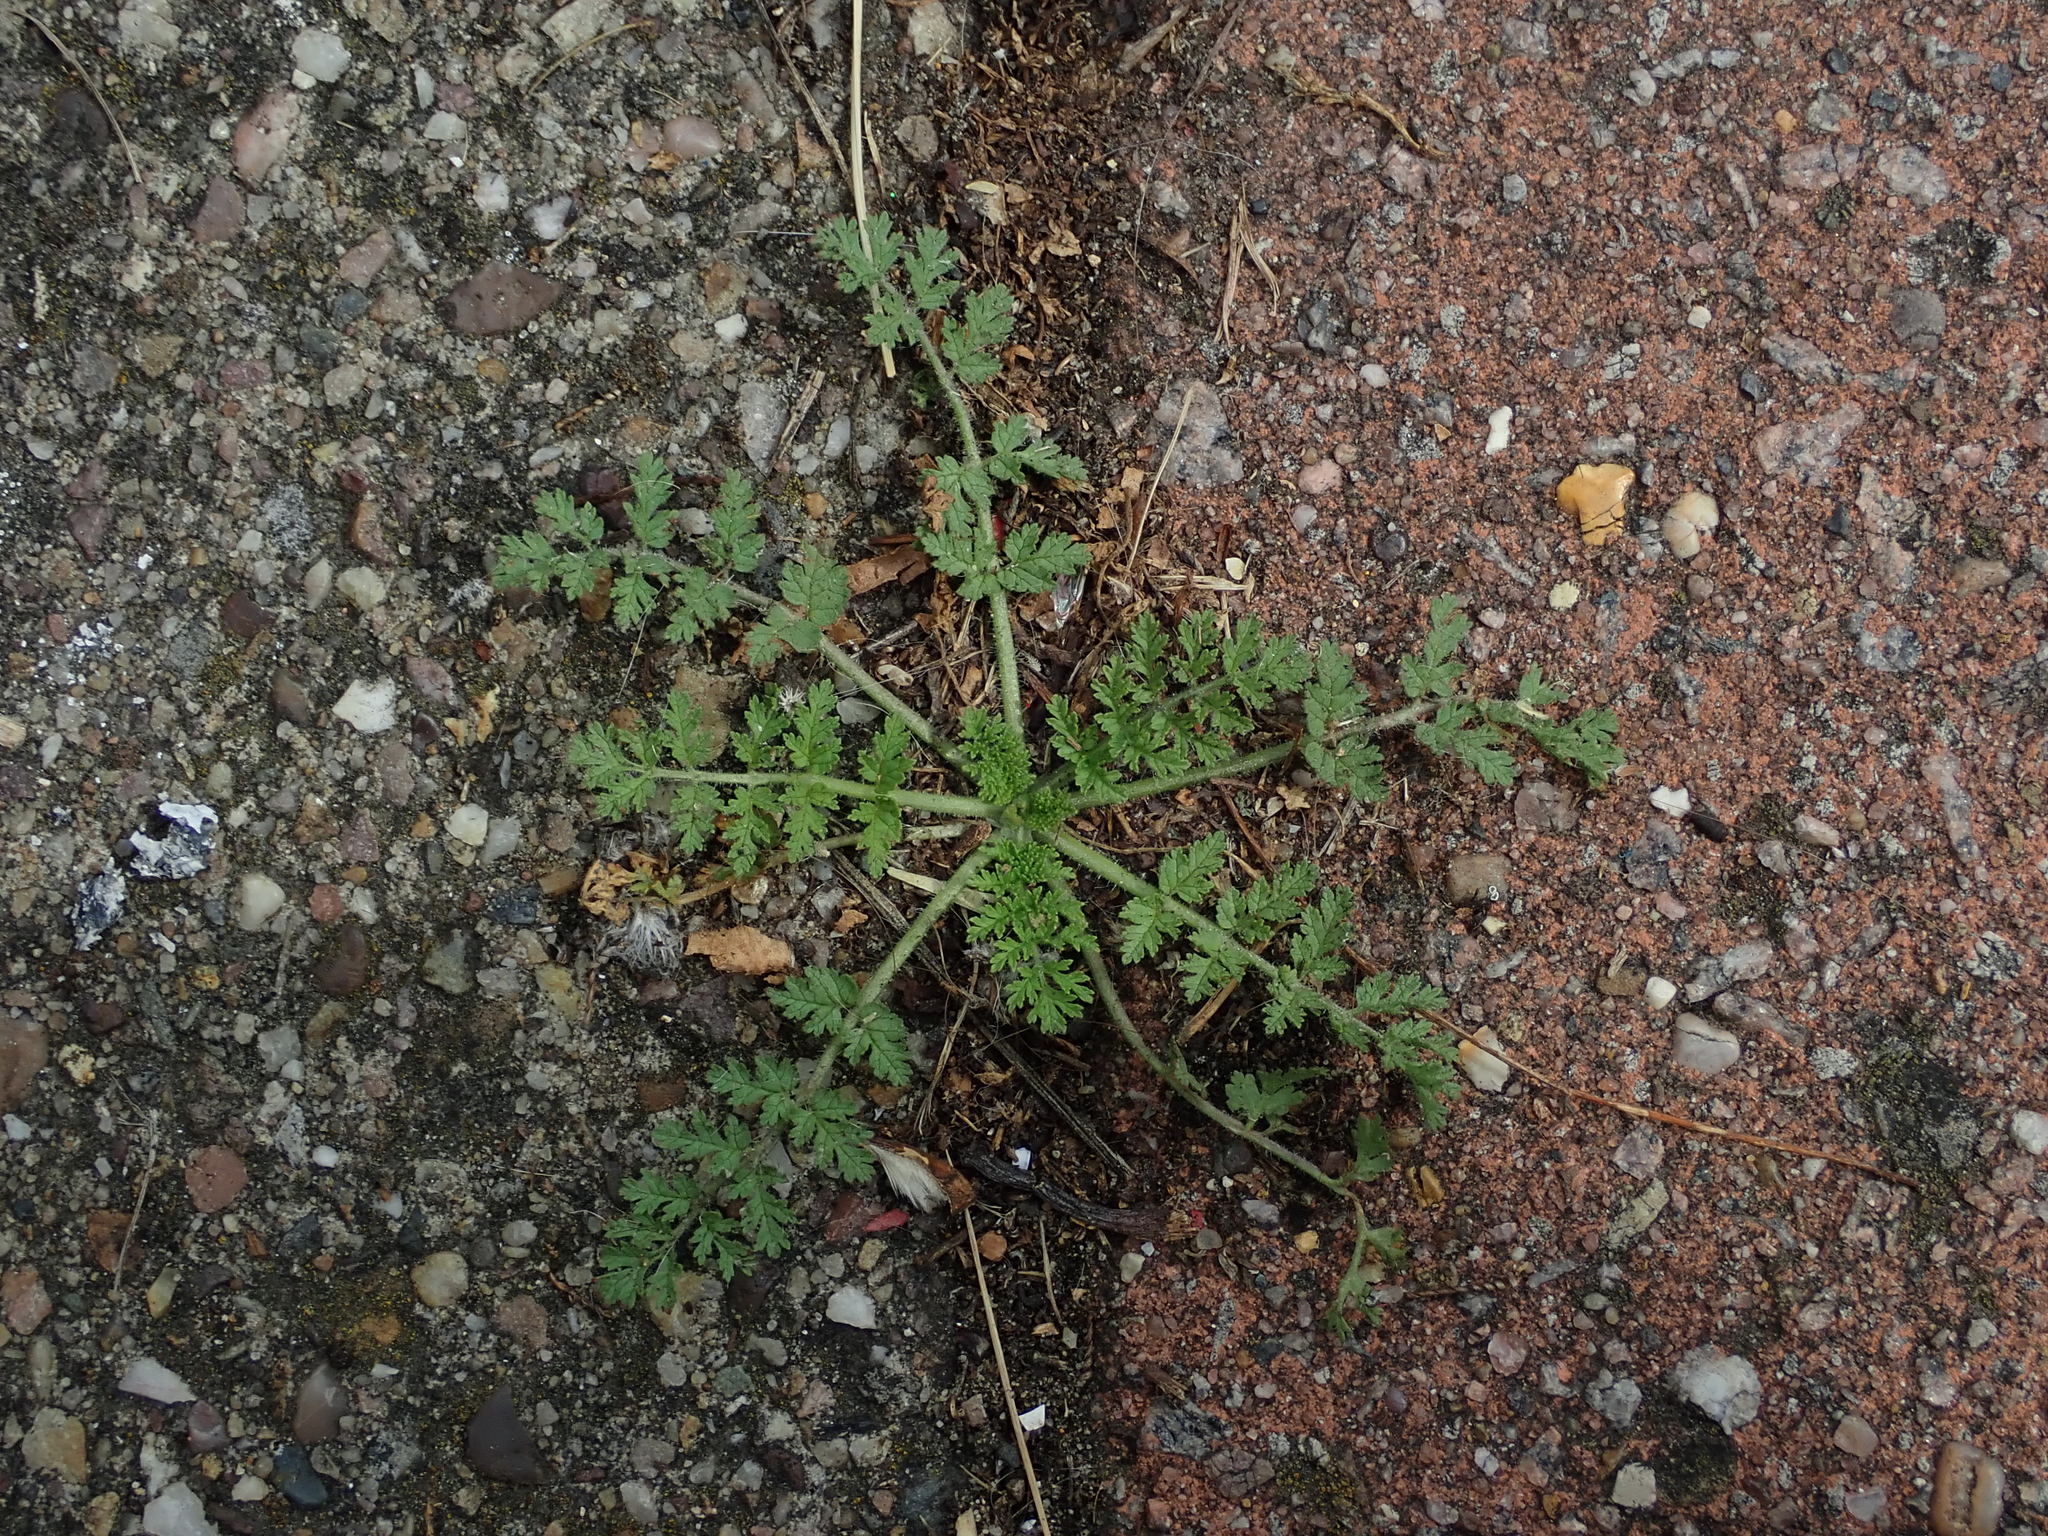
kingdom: Plantae
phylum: Tracheophyta
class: Magnoliopsida
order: Geraniales
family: Geraniaceae
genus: Erodium
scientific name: Erodium cicutarium
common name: Common stork's-bill
